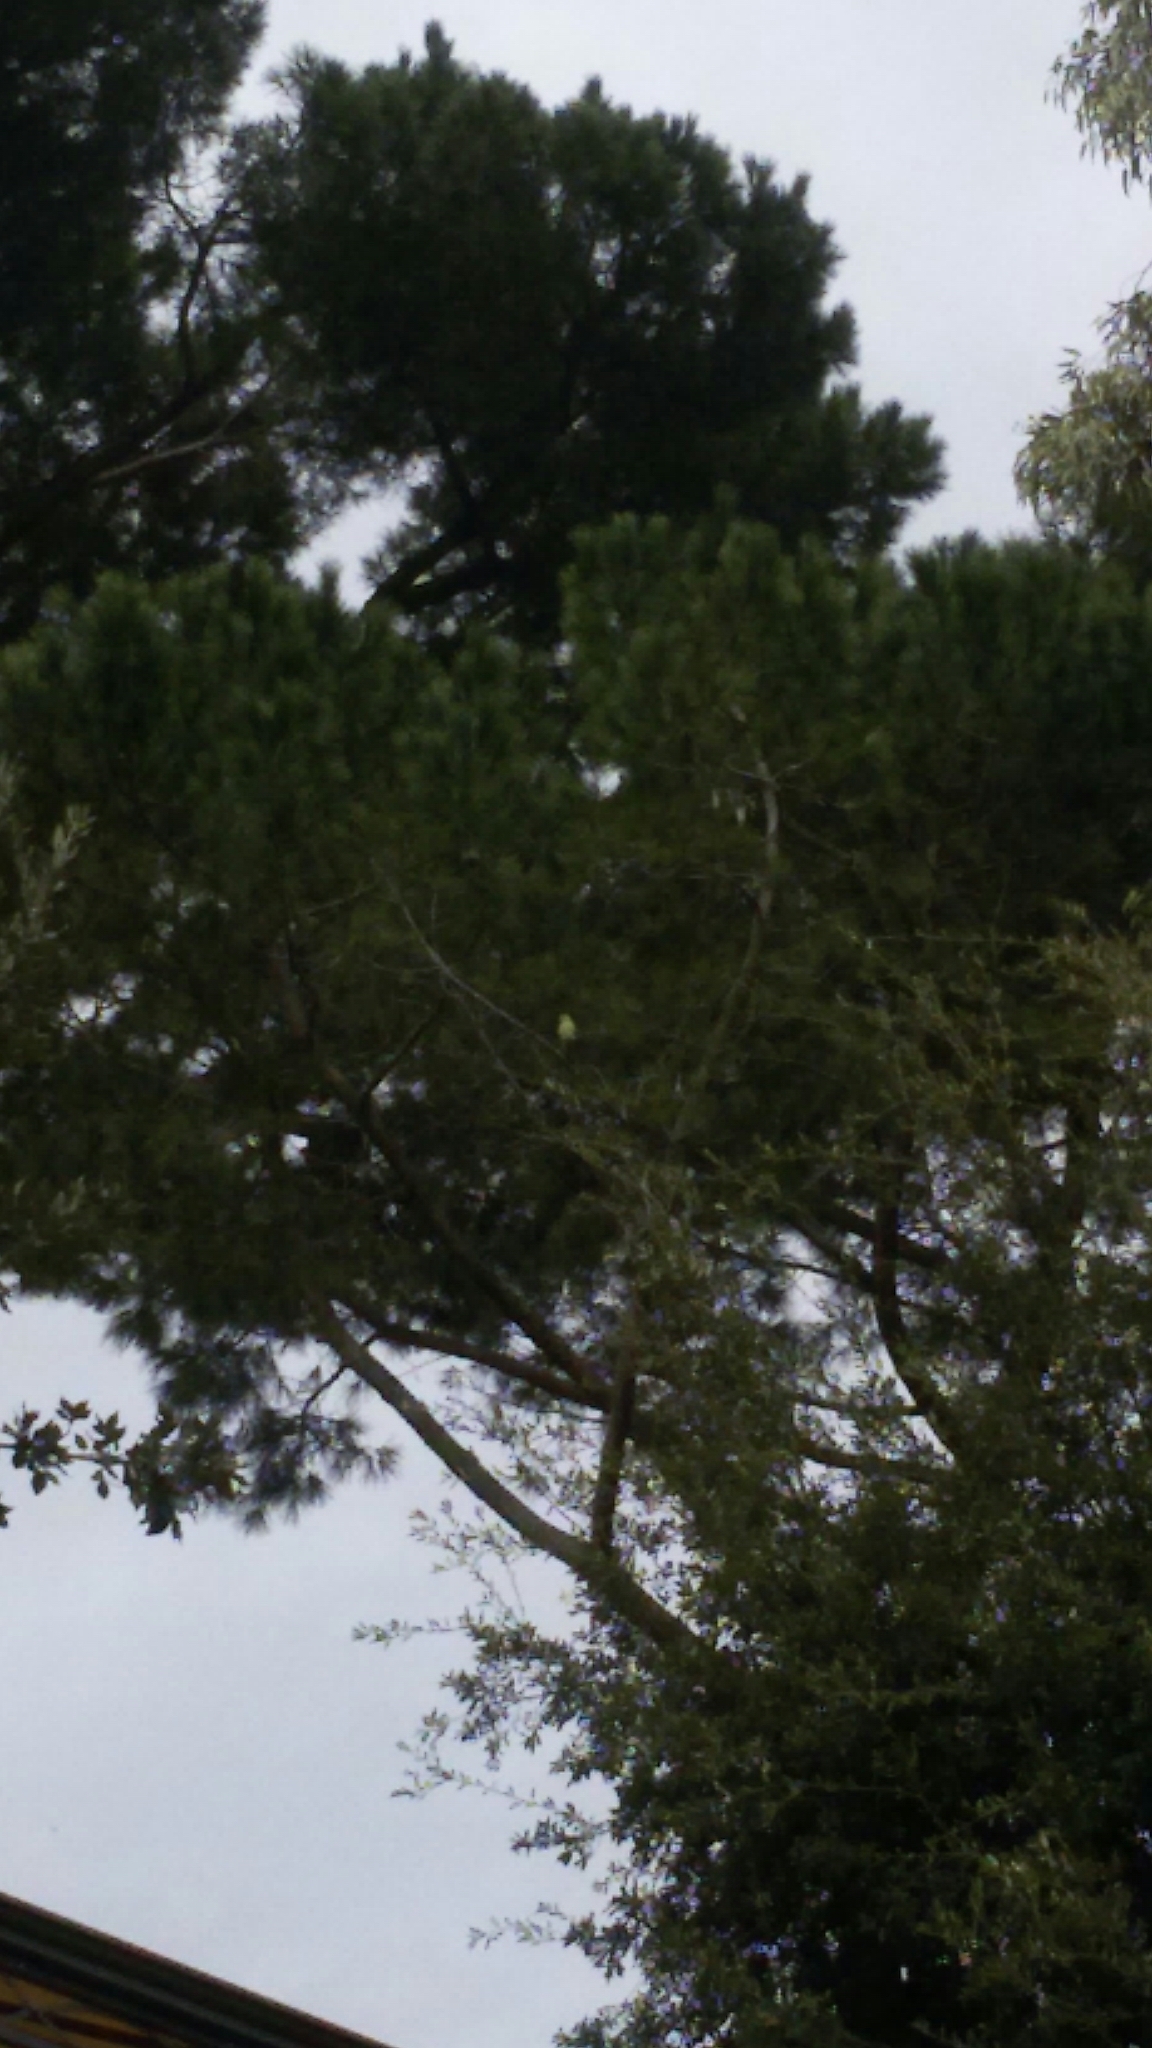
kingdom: Animalia
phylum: Chordata
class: Aves
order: Psittaciformes
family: Psittacidae
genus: Psittacula
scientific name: Psittacula krameri
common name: Rose-ringed parakeet
